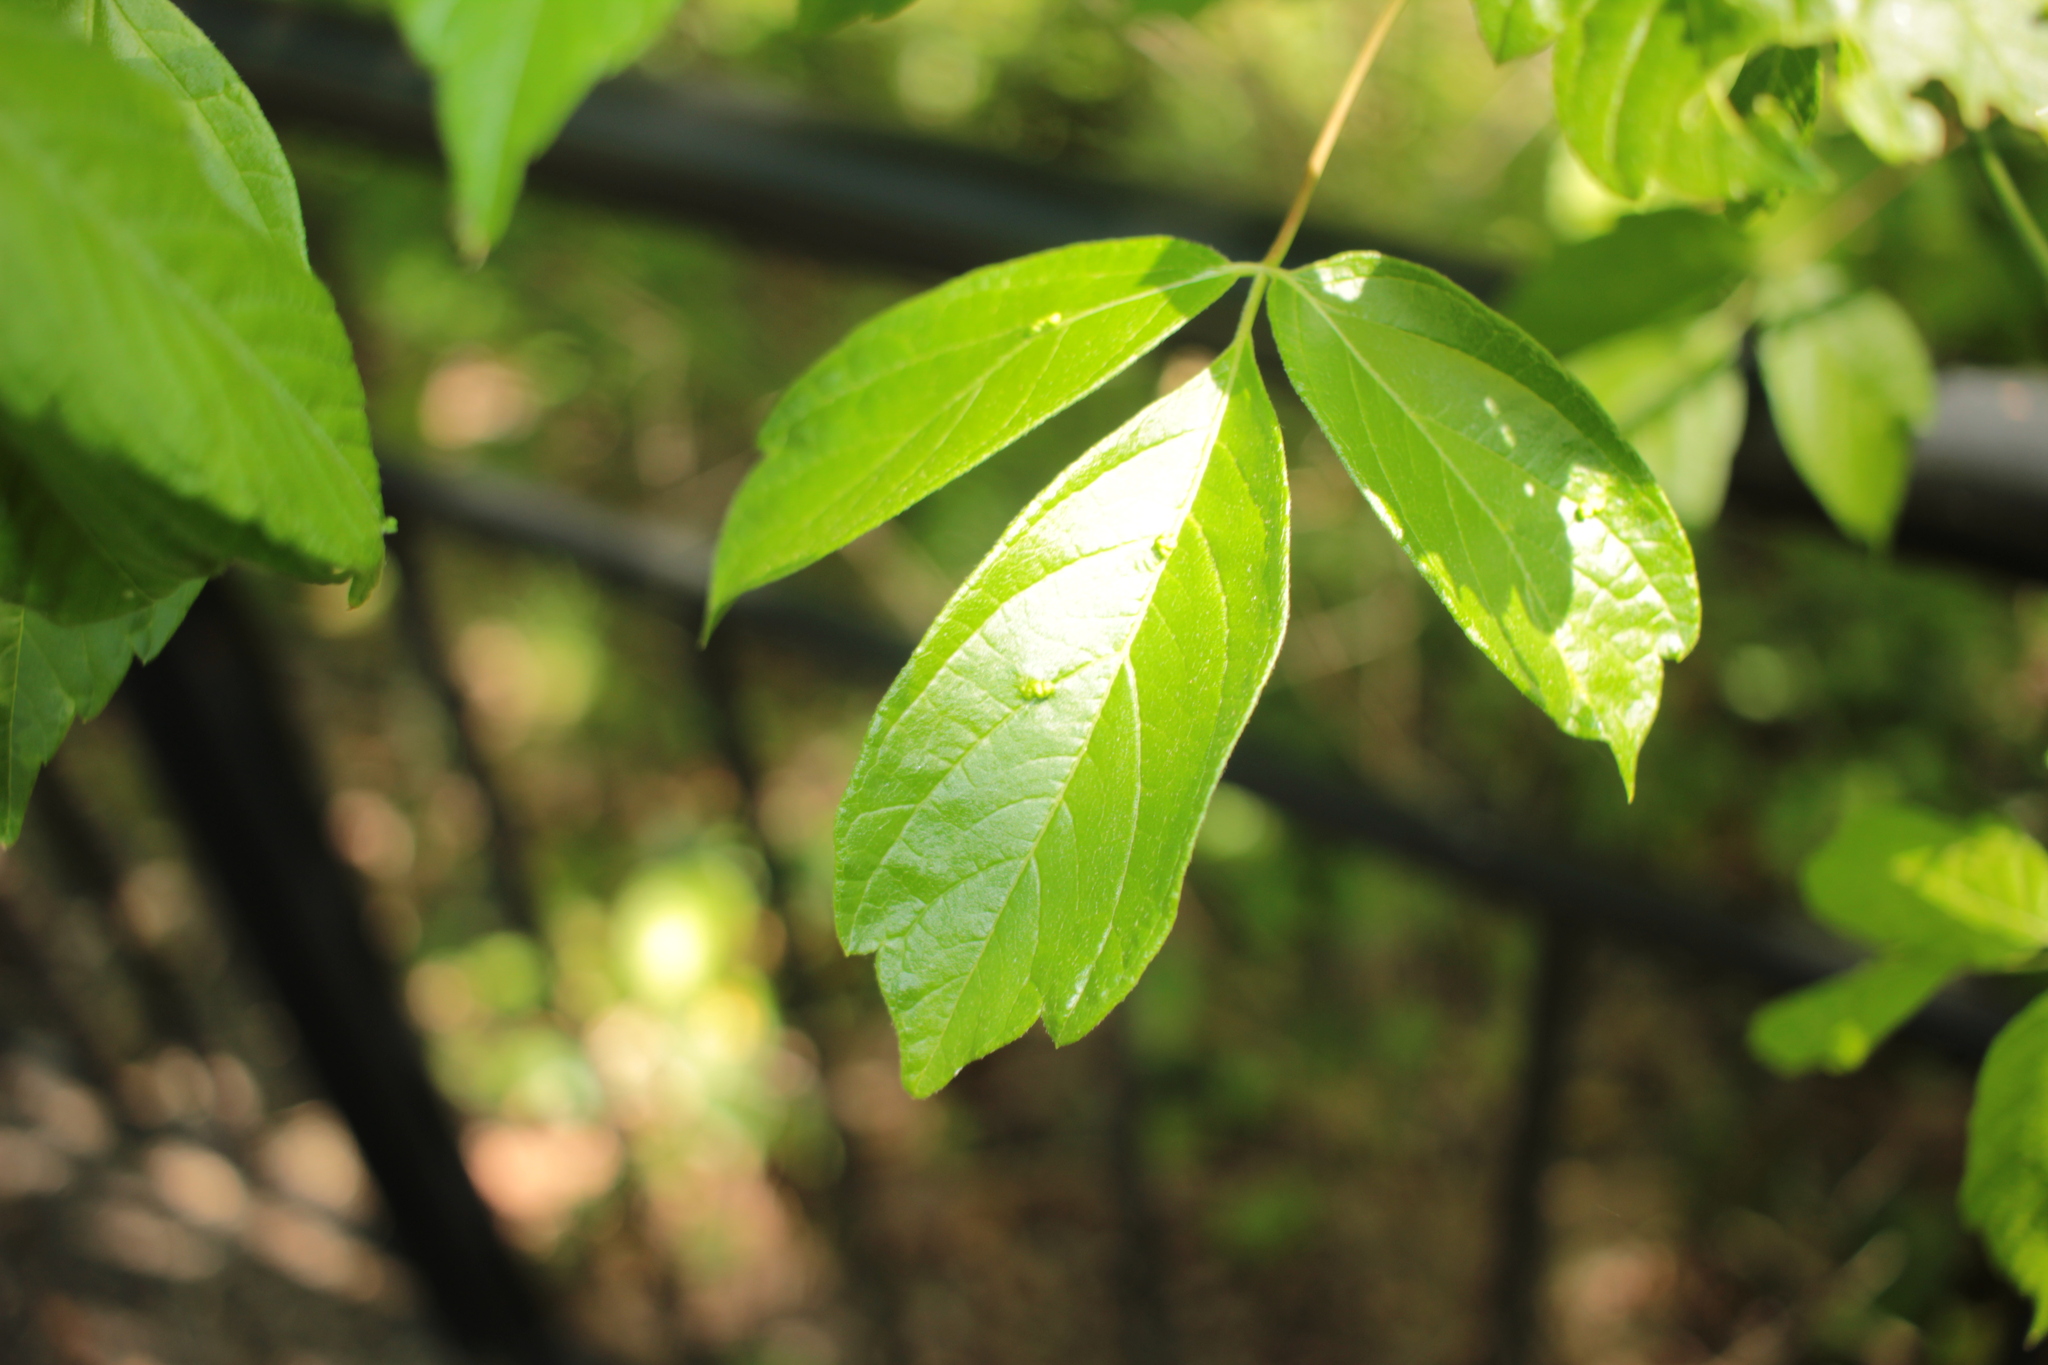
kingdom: Plantae
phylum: Tracheophyta
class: Magnoliopsida
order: Sapindales
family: Sapindaceae
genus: Acer
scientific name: Acer negundo
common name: Ashleaf maple
